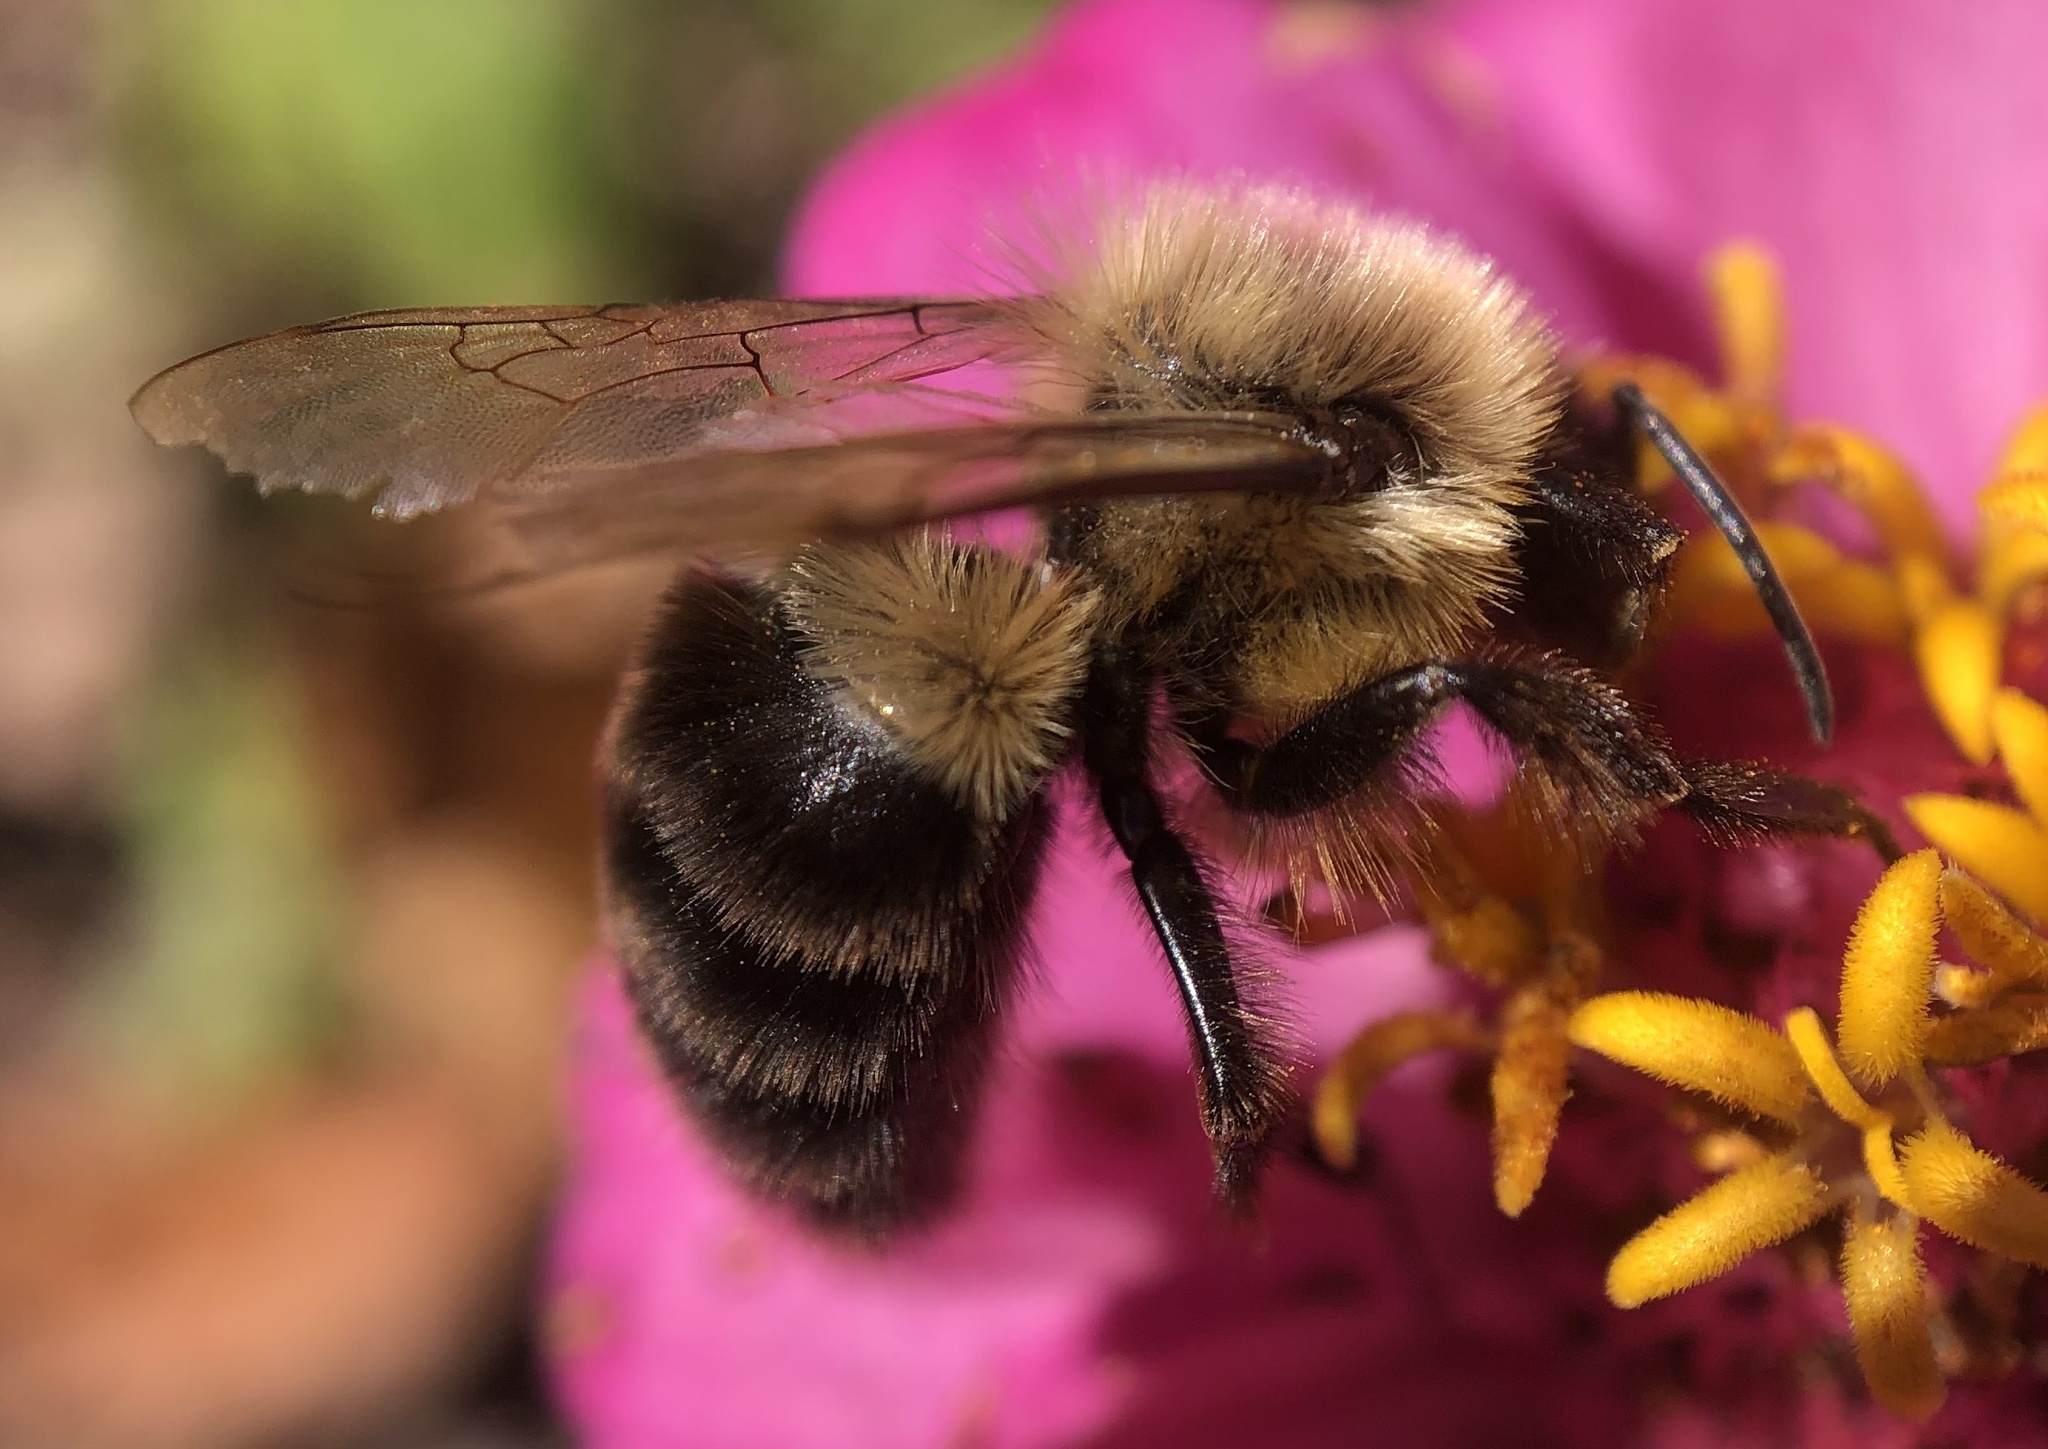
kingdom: Animalia
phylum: Arthropoda
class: Insecta
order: Hymenoptera
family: Apidae
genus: Bombus
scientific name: Bombus impatiens
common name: Common eastern bumble bee
